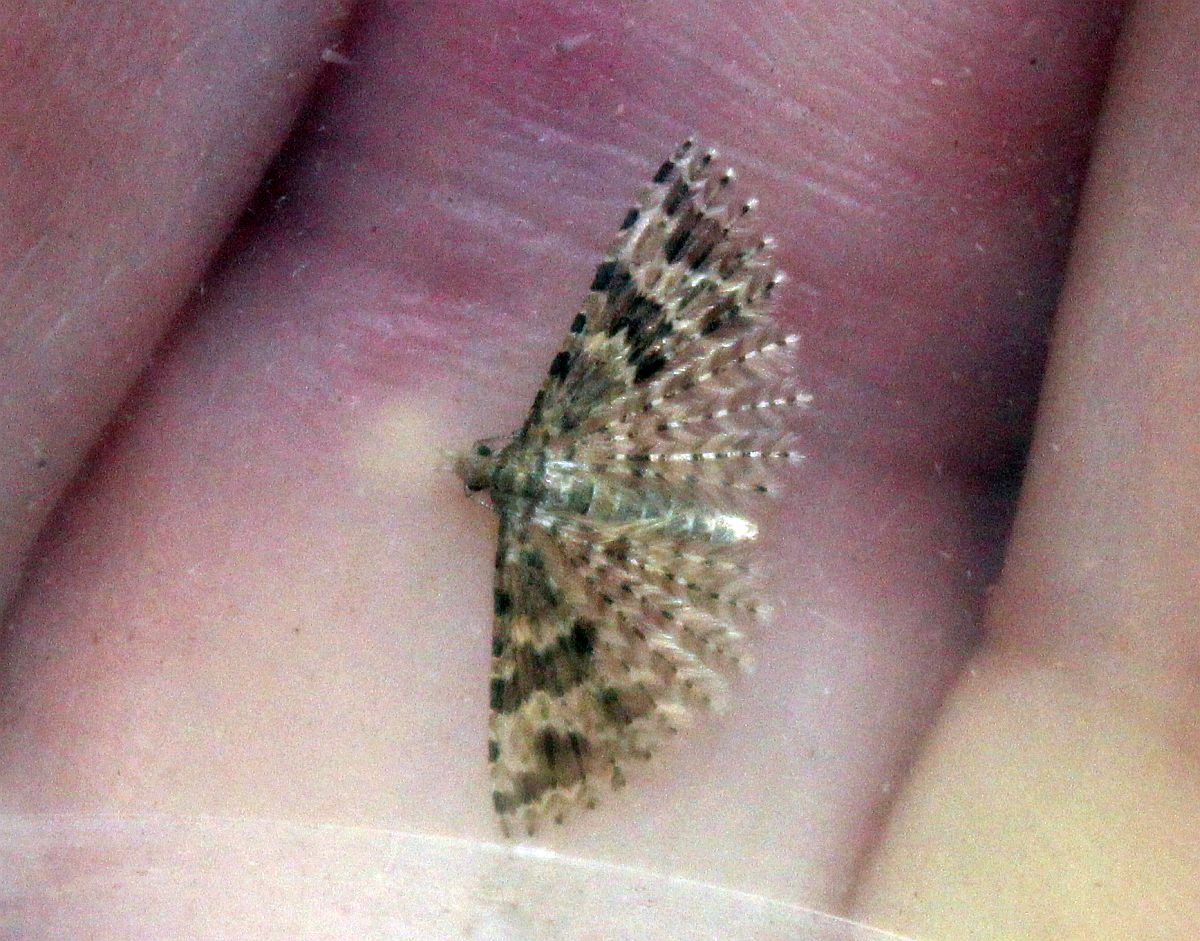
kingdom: Animalia
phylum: Arthropoda
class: Insecta
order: Lepidoptera
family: Alucitidae
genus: Alucita
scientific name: Alucita hexadactyla
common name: Twenty-plume moth
